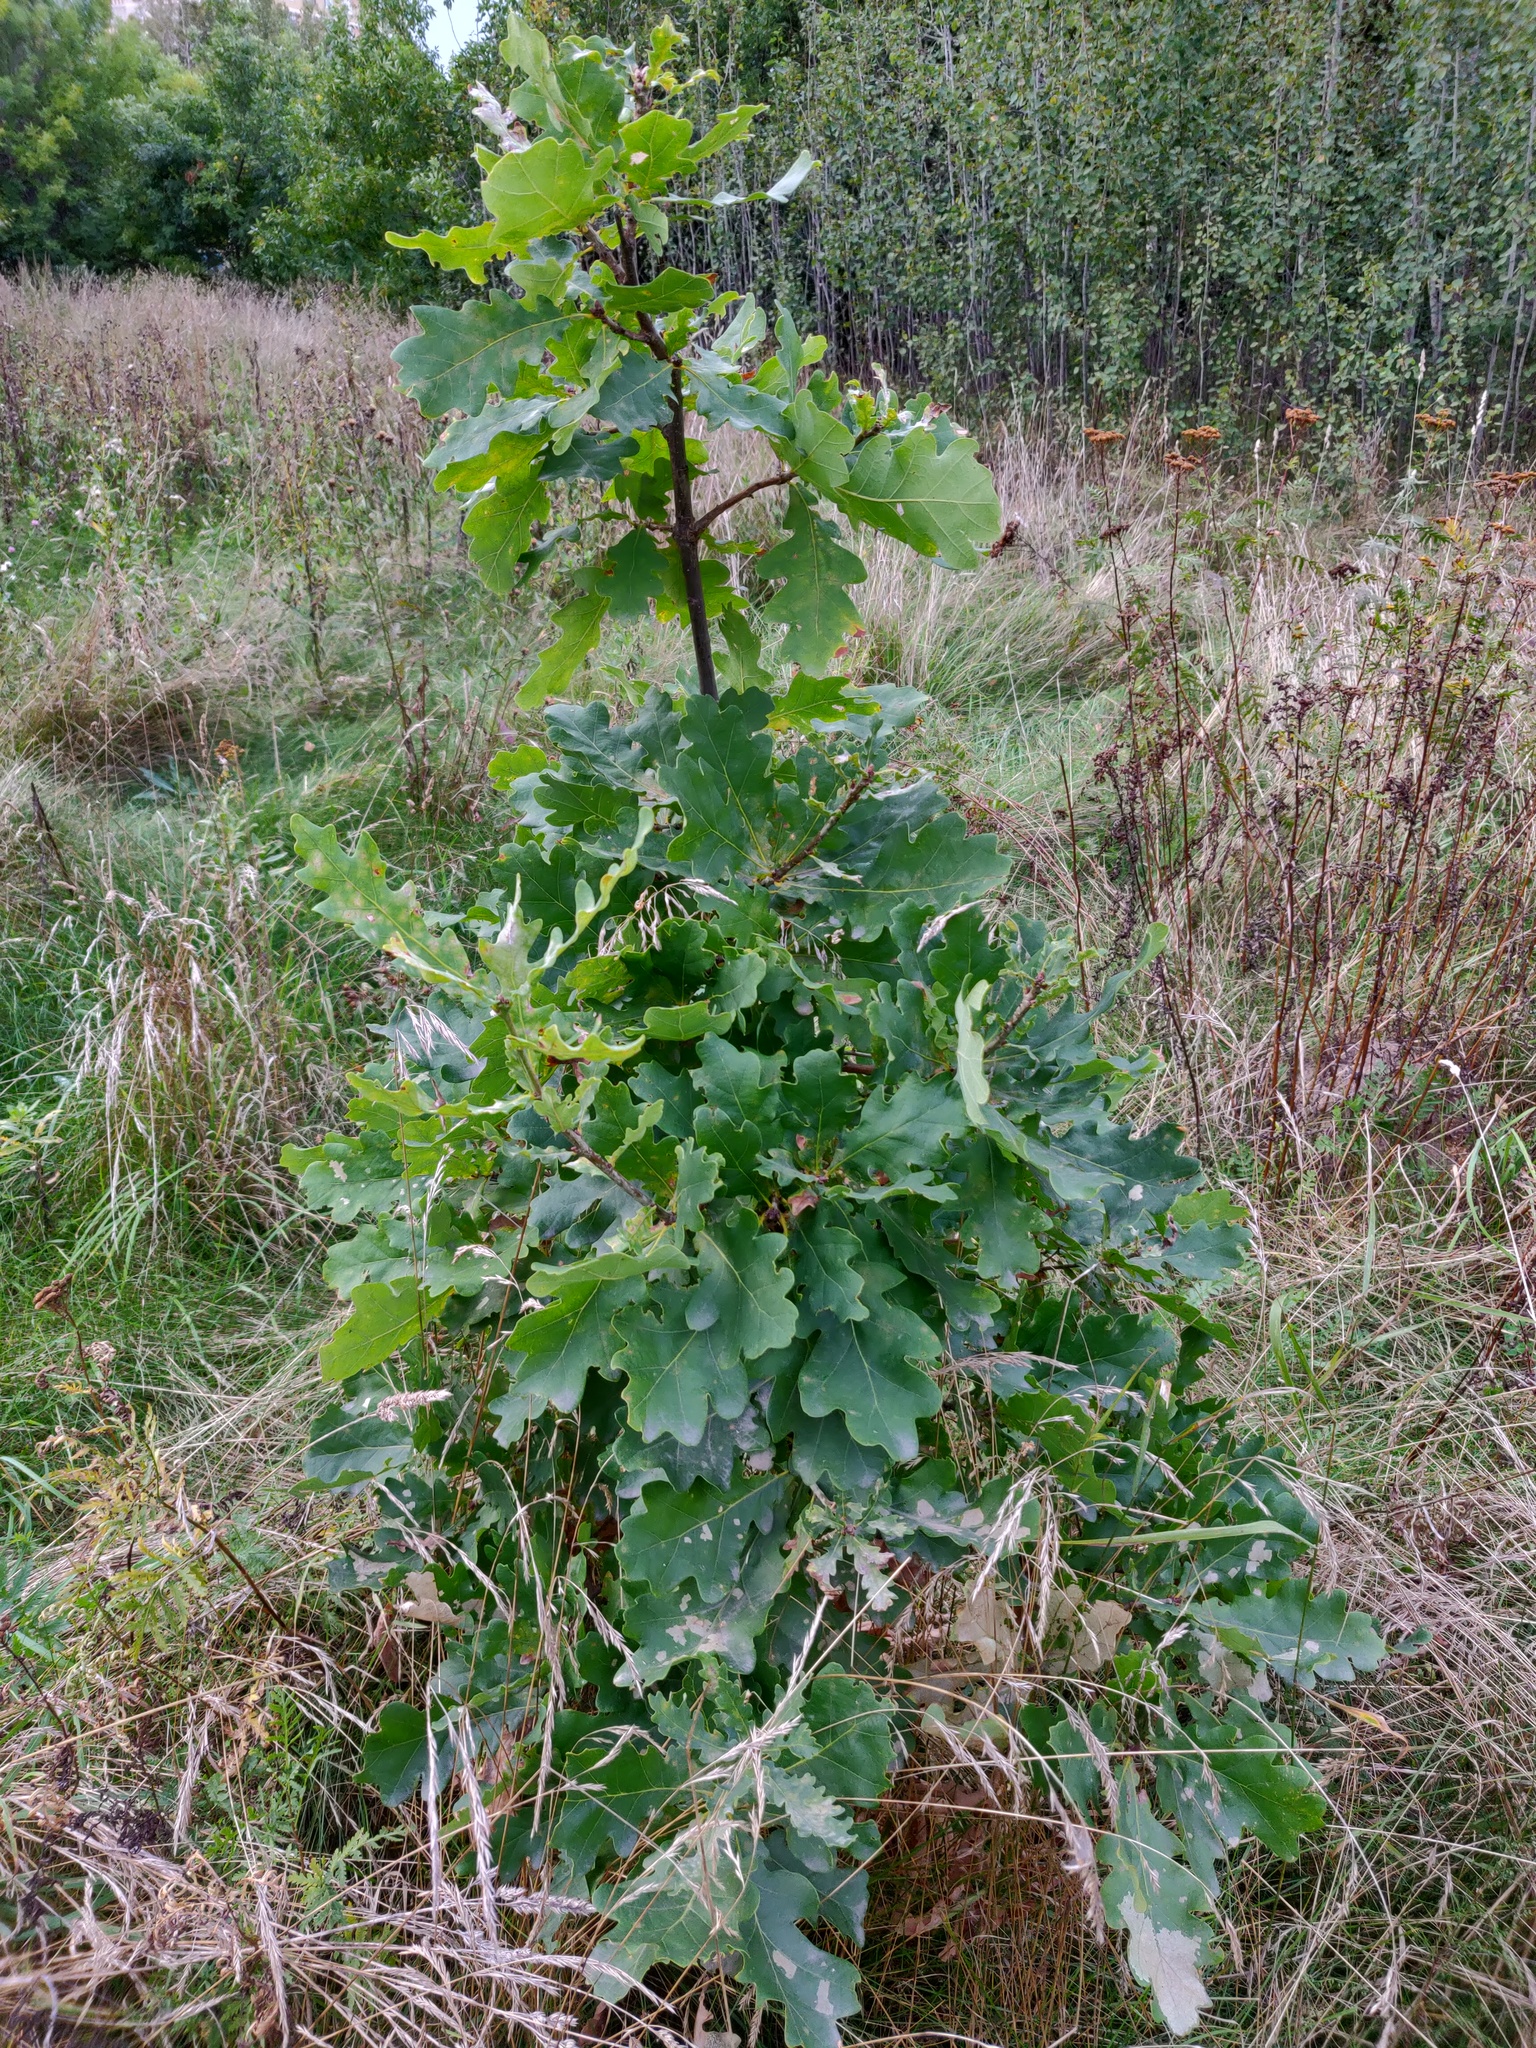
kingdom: Plantae
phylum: Tracheophyta
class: Magnoliopsida
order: Fagales
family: Fagaceae
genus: Quercus
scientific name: Quercus robur
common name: Pedunculate oak
